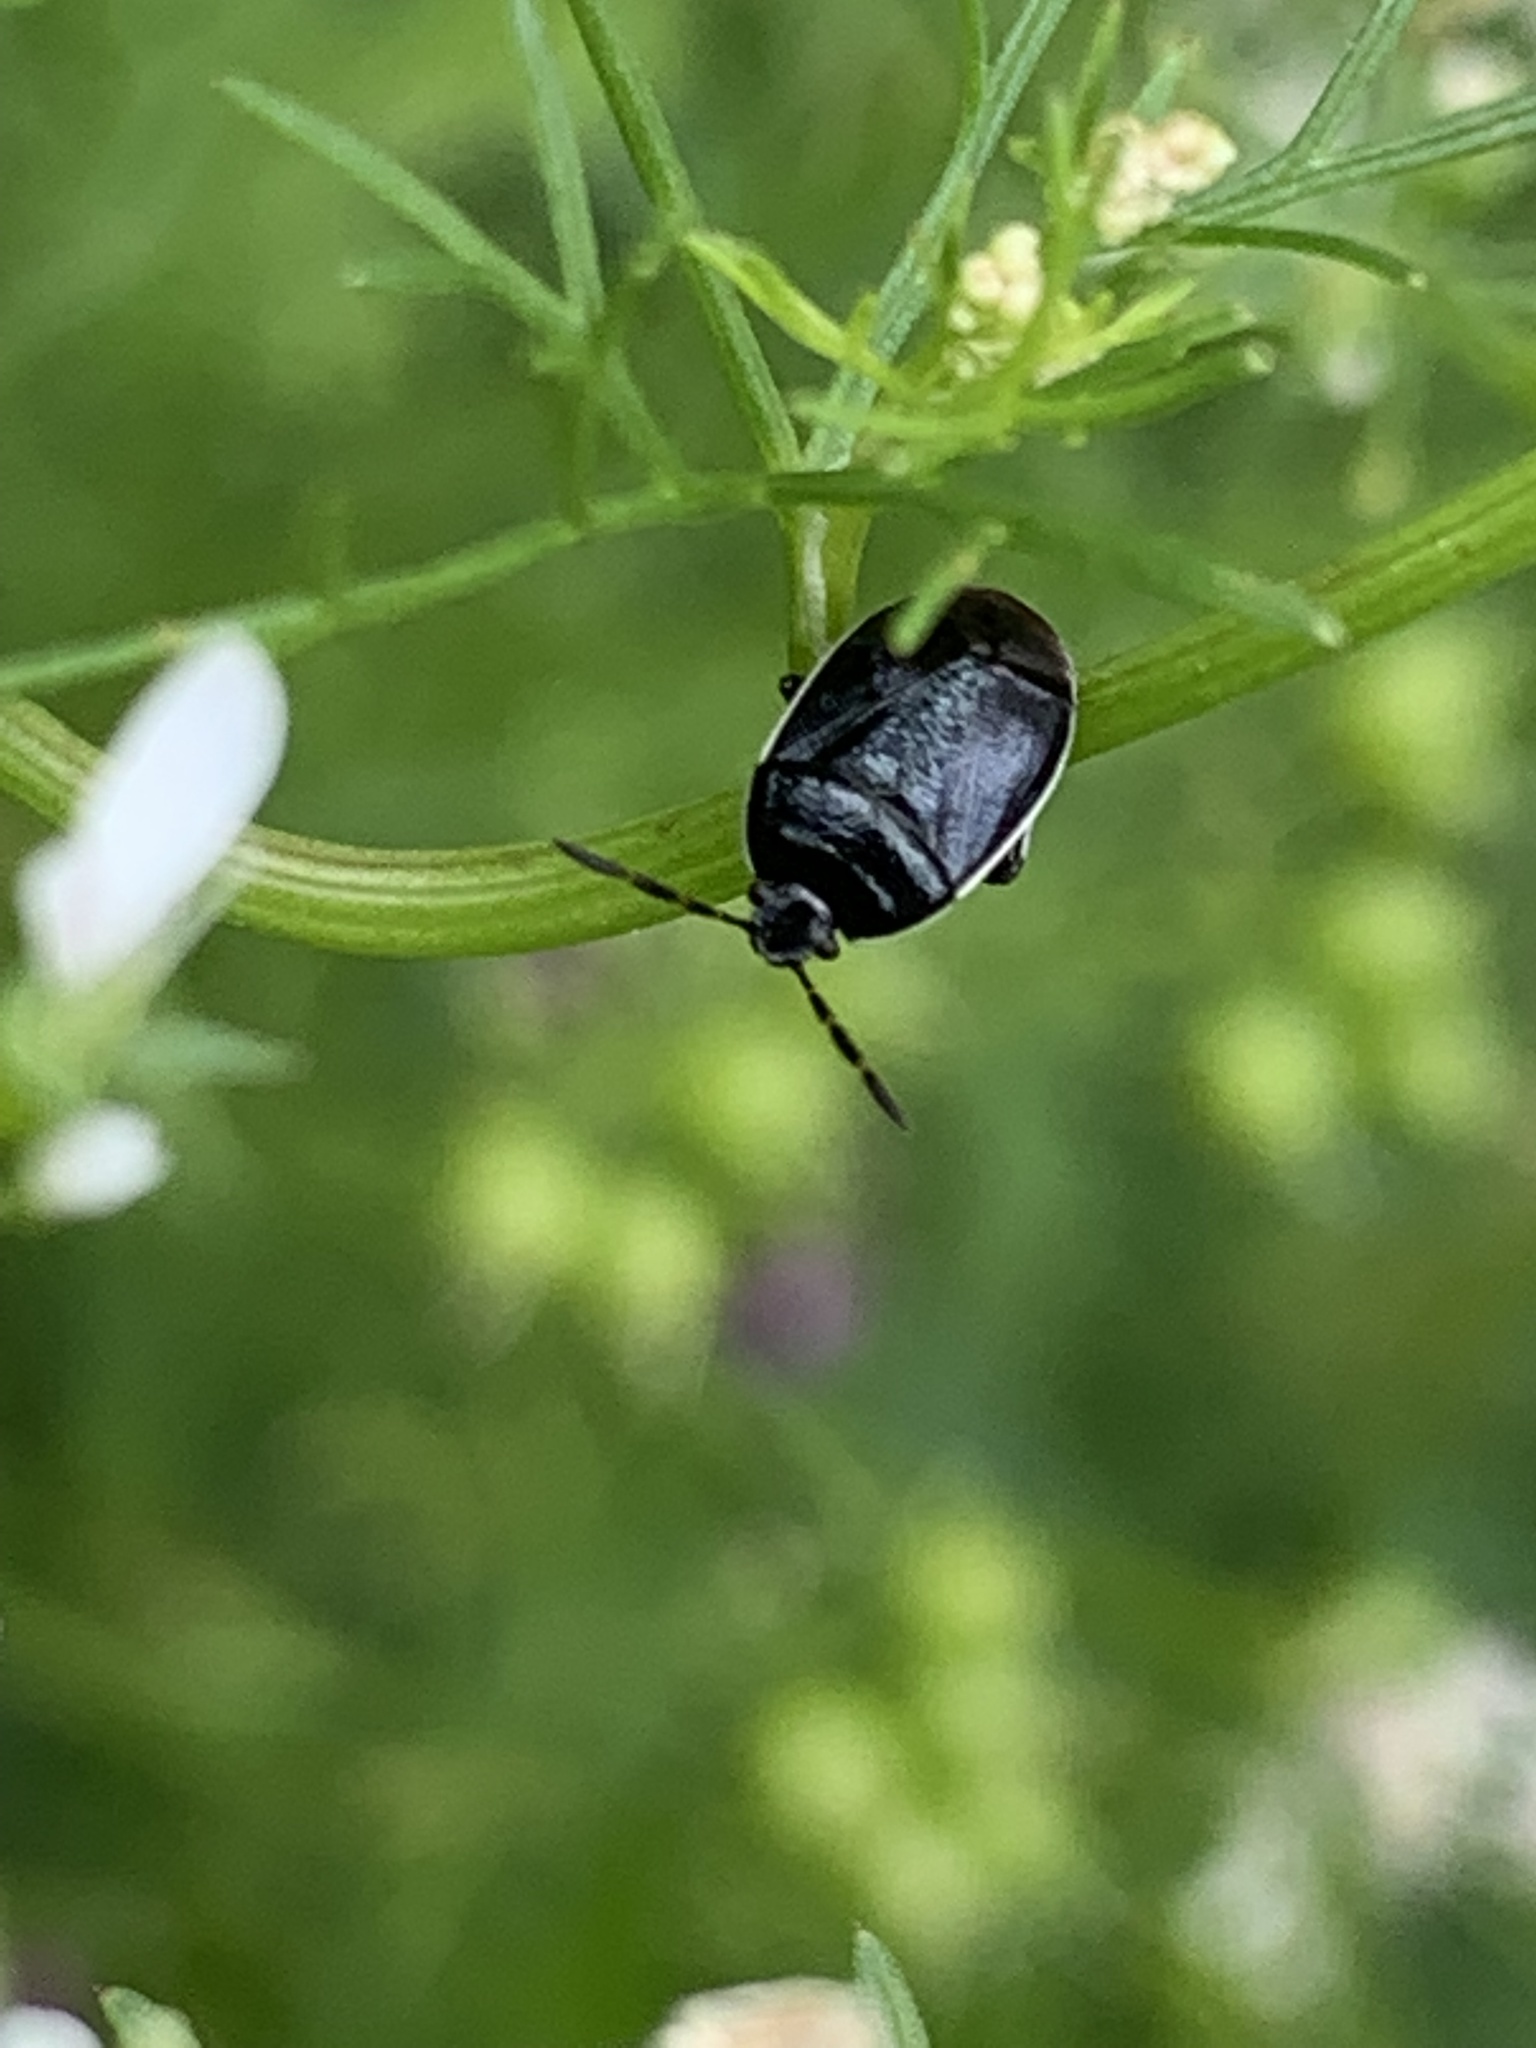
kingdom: Animalia
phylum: Arthropoda
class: Insecta
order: Hemiptera
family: Cydnidae
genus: Sehirus
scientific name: Sehirus cinctus
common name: White-margined burrower bug
